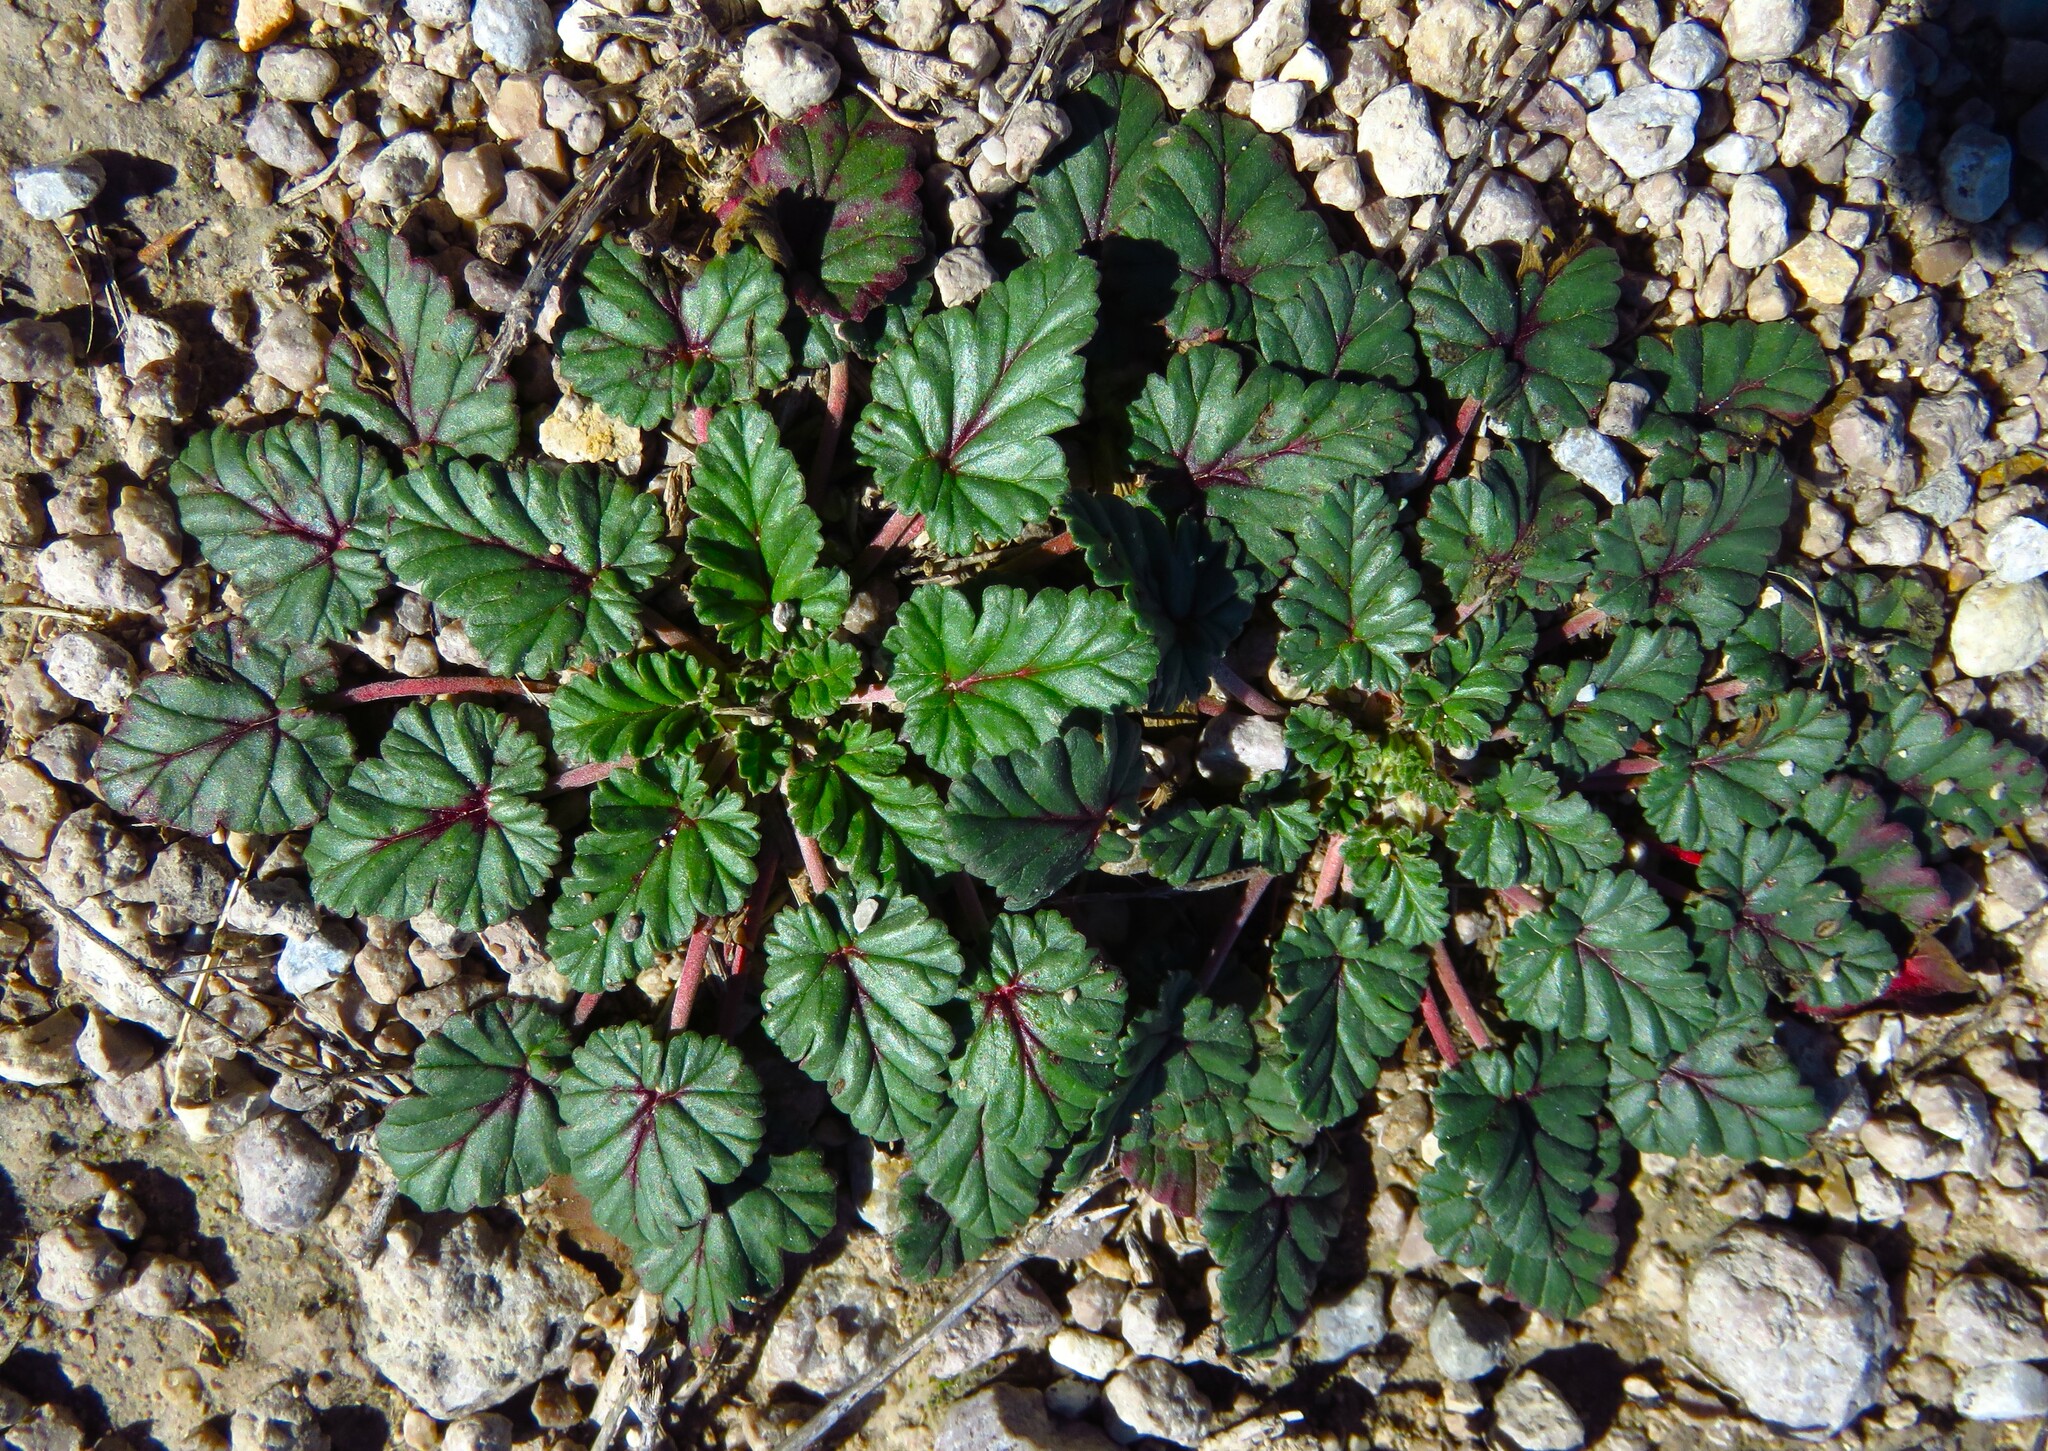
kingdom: Plantae
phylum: Tracheophyta
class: Magnoliopsida
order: Geraniales
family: Geraniaceae
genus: Erodium
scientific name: Erodium texanum
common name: Texas stork's-bill
